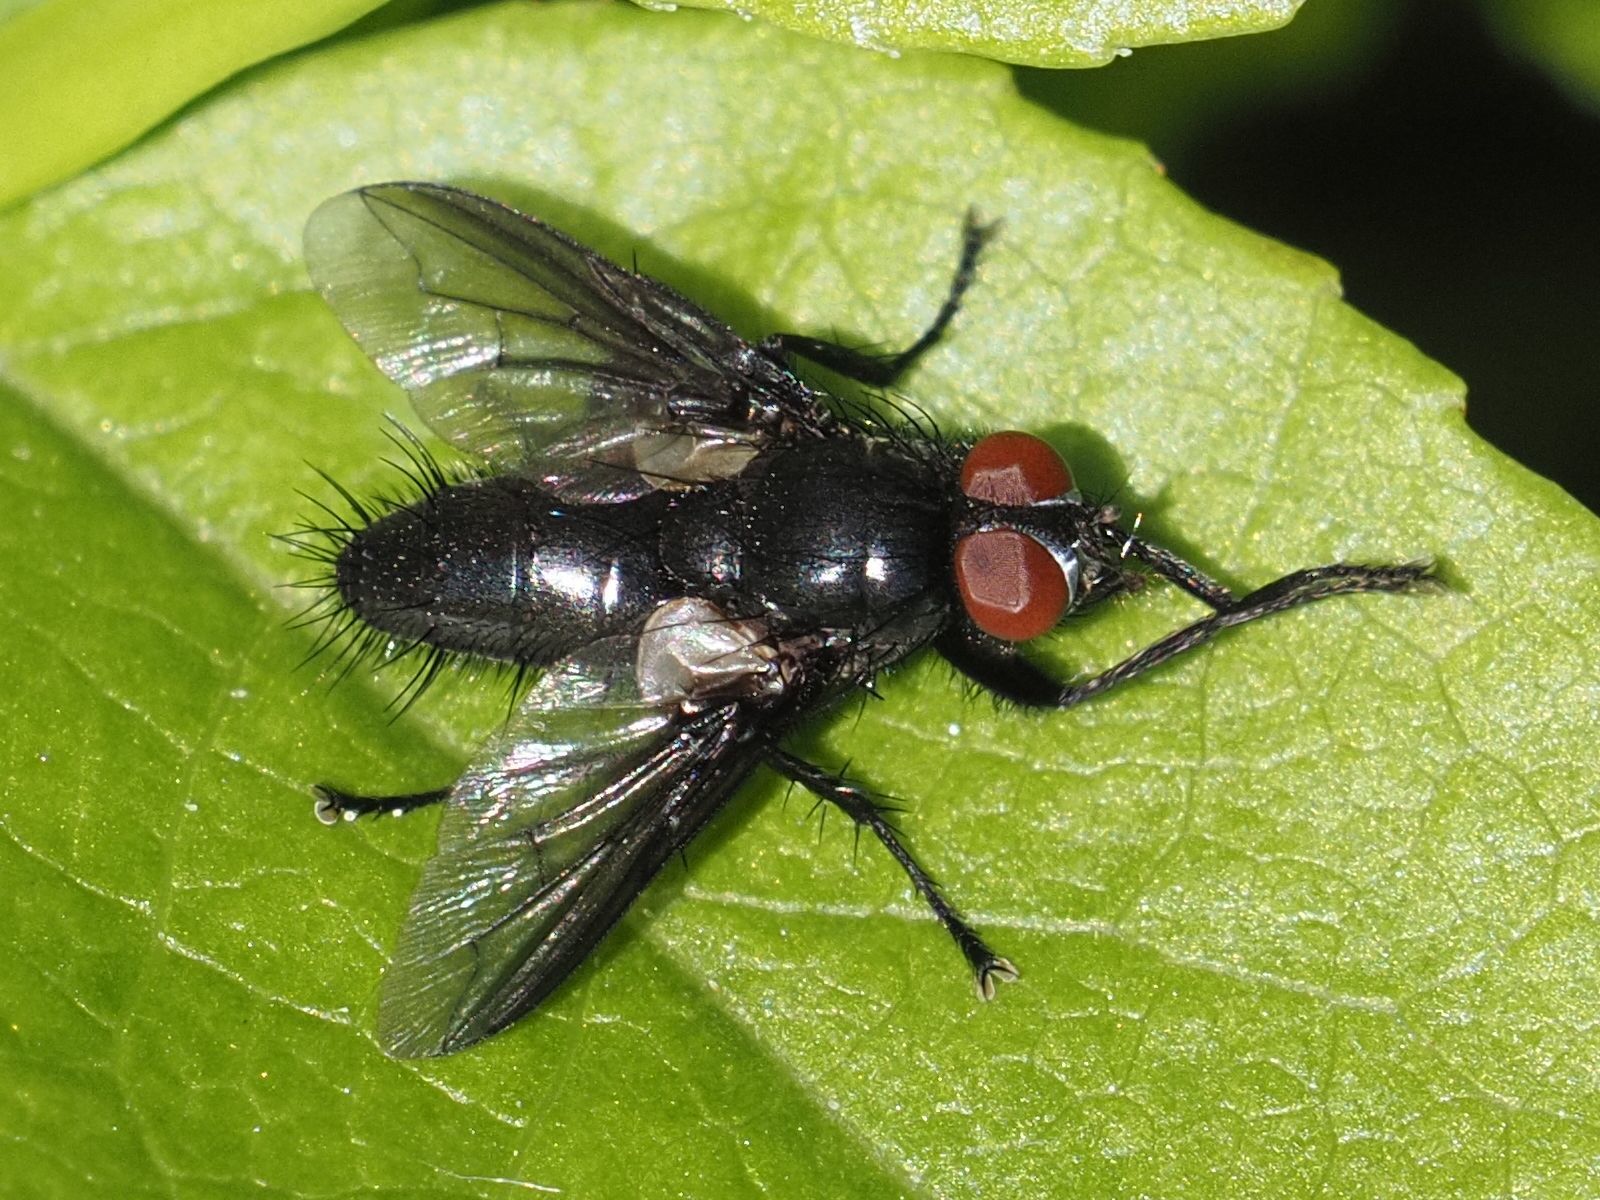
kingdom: Animalia
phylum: Arthropoda
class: Insecta
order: Diptera
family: Sarcophagidae
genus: Nyctia
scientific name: Nyctia halterata
